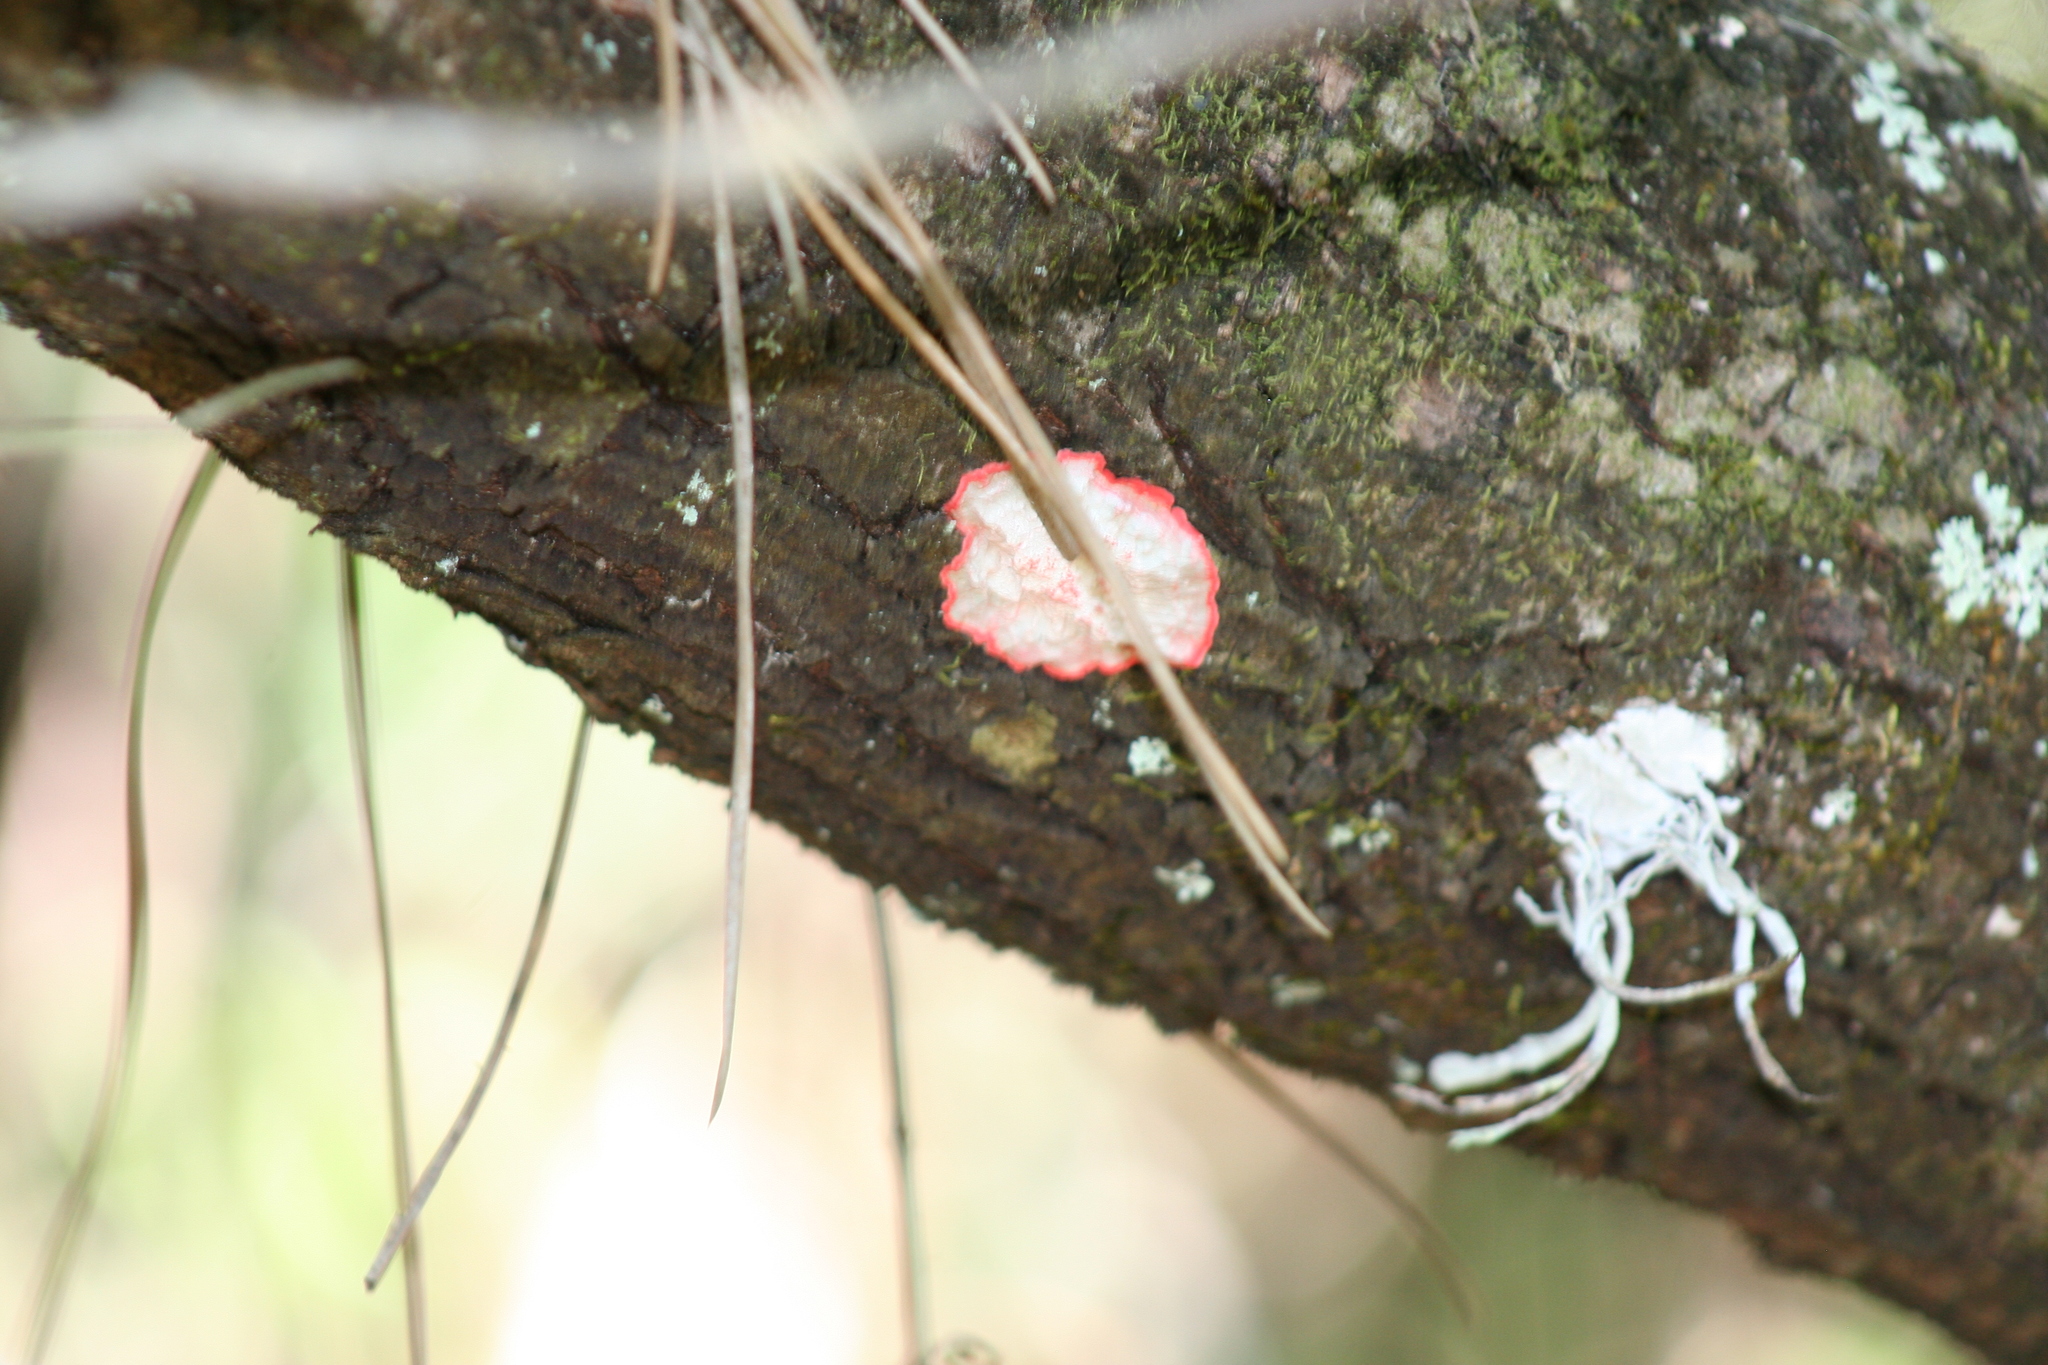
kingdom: Fungi
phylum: Ascomycota
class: Arthoniomycetes
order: Arthoniales
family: Arthoniaceae
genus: Herpothallon
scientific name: Herpothallon rubrocinctum
